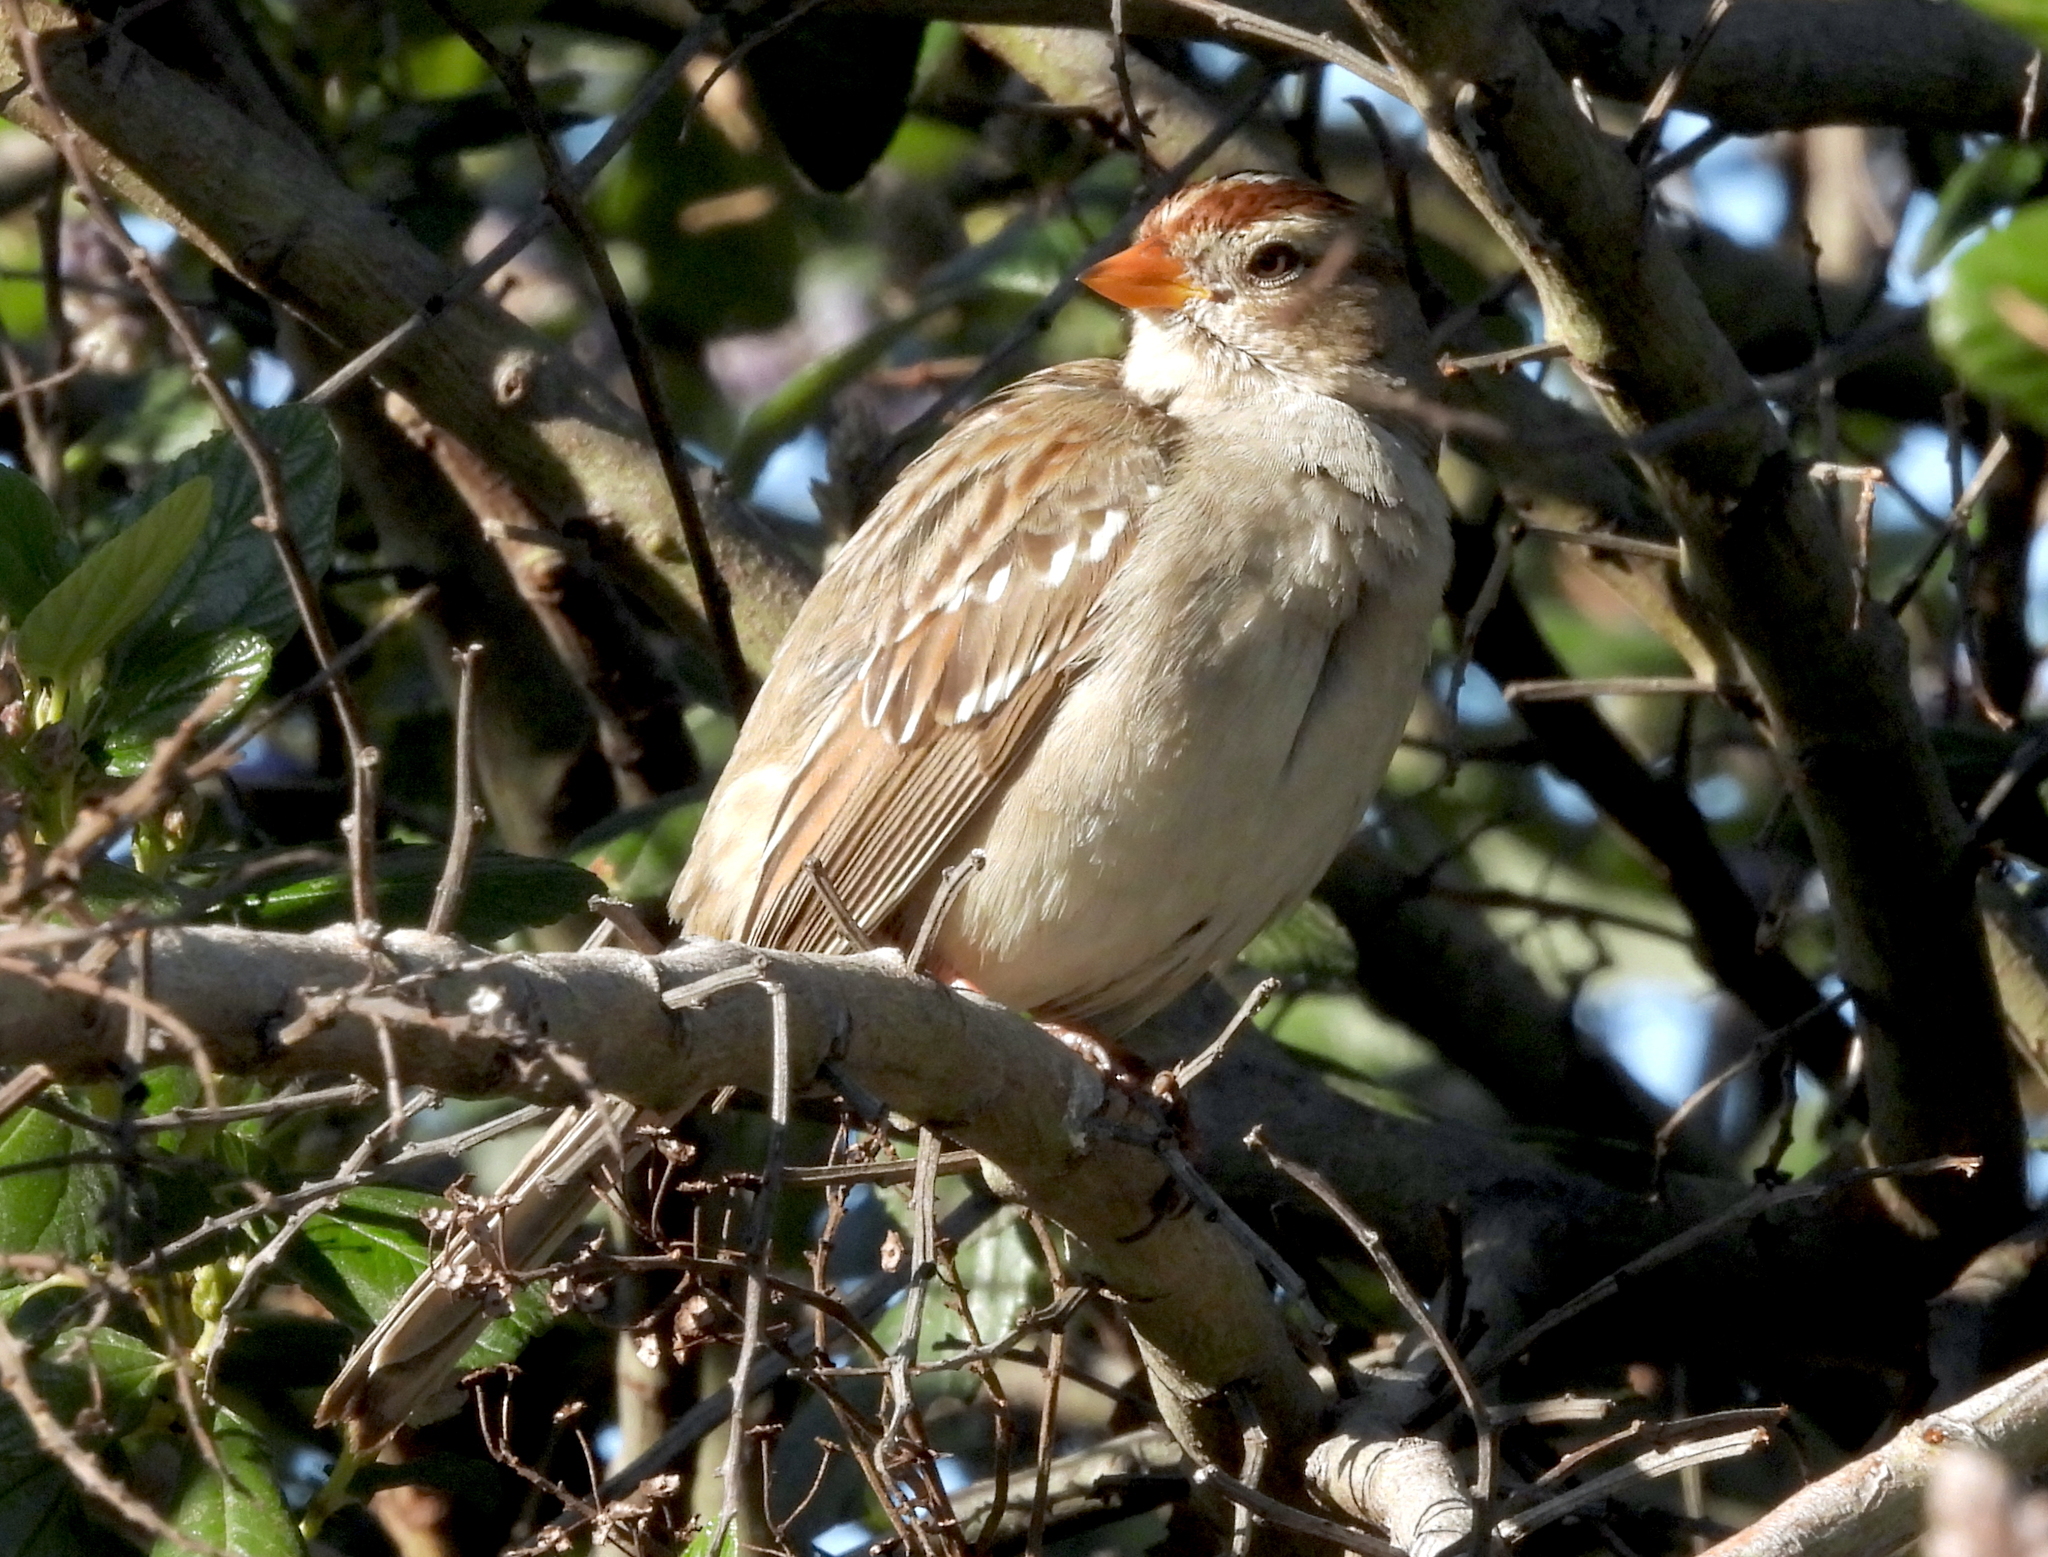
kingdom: Animalia
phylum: Chordata
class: Aves
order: Passeriformes
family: Passerellidae
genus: Zonotrichia
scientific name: Zonotrichia leucophrys
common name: White-crowned sparrow
